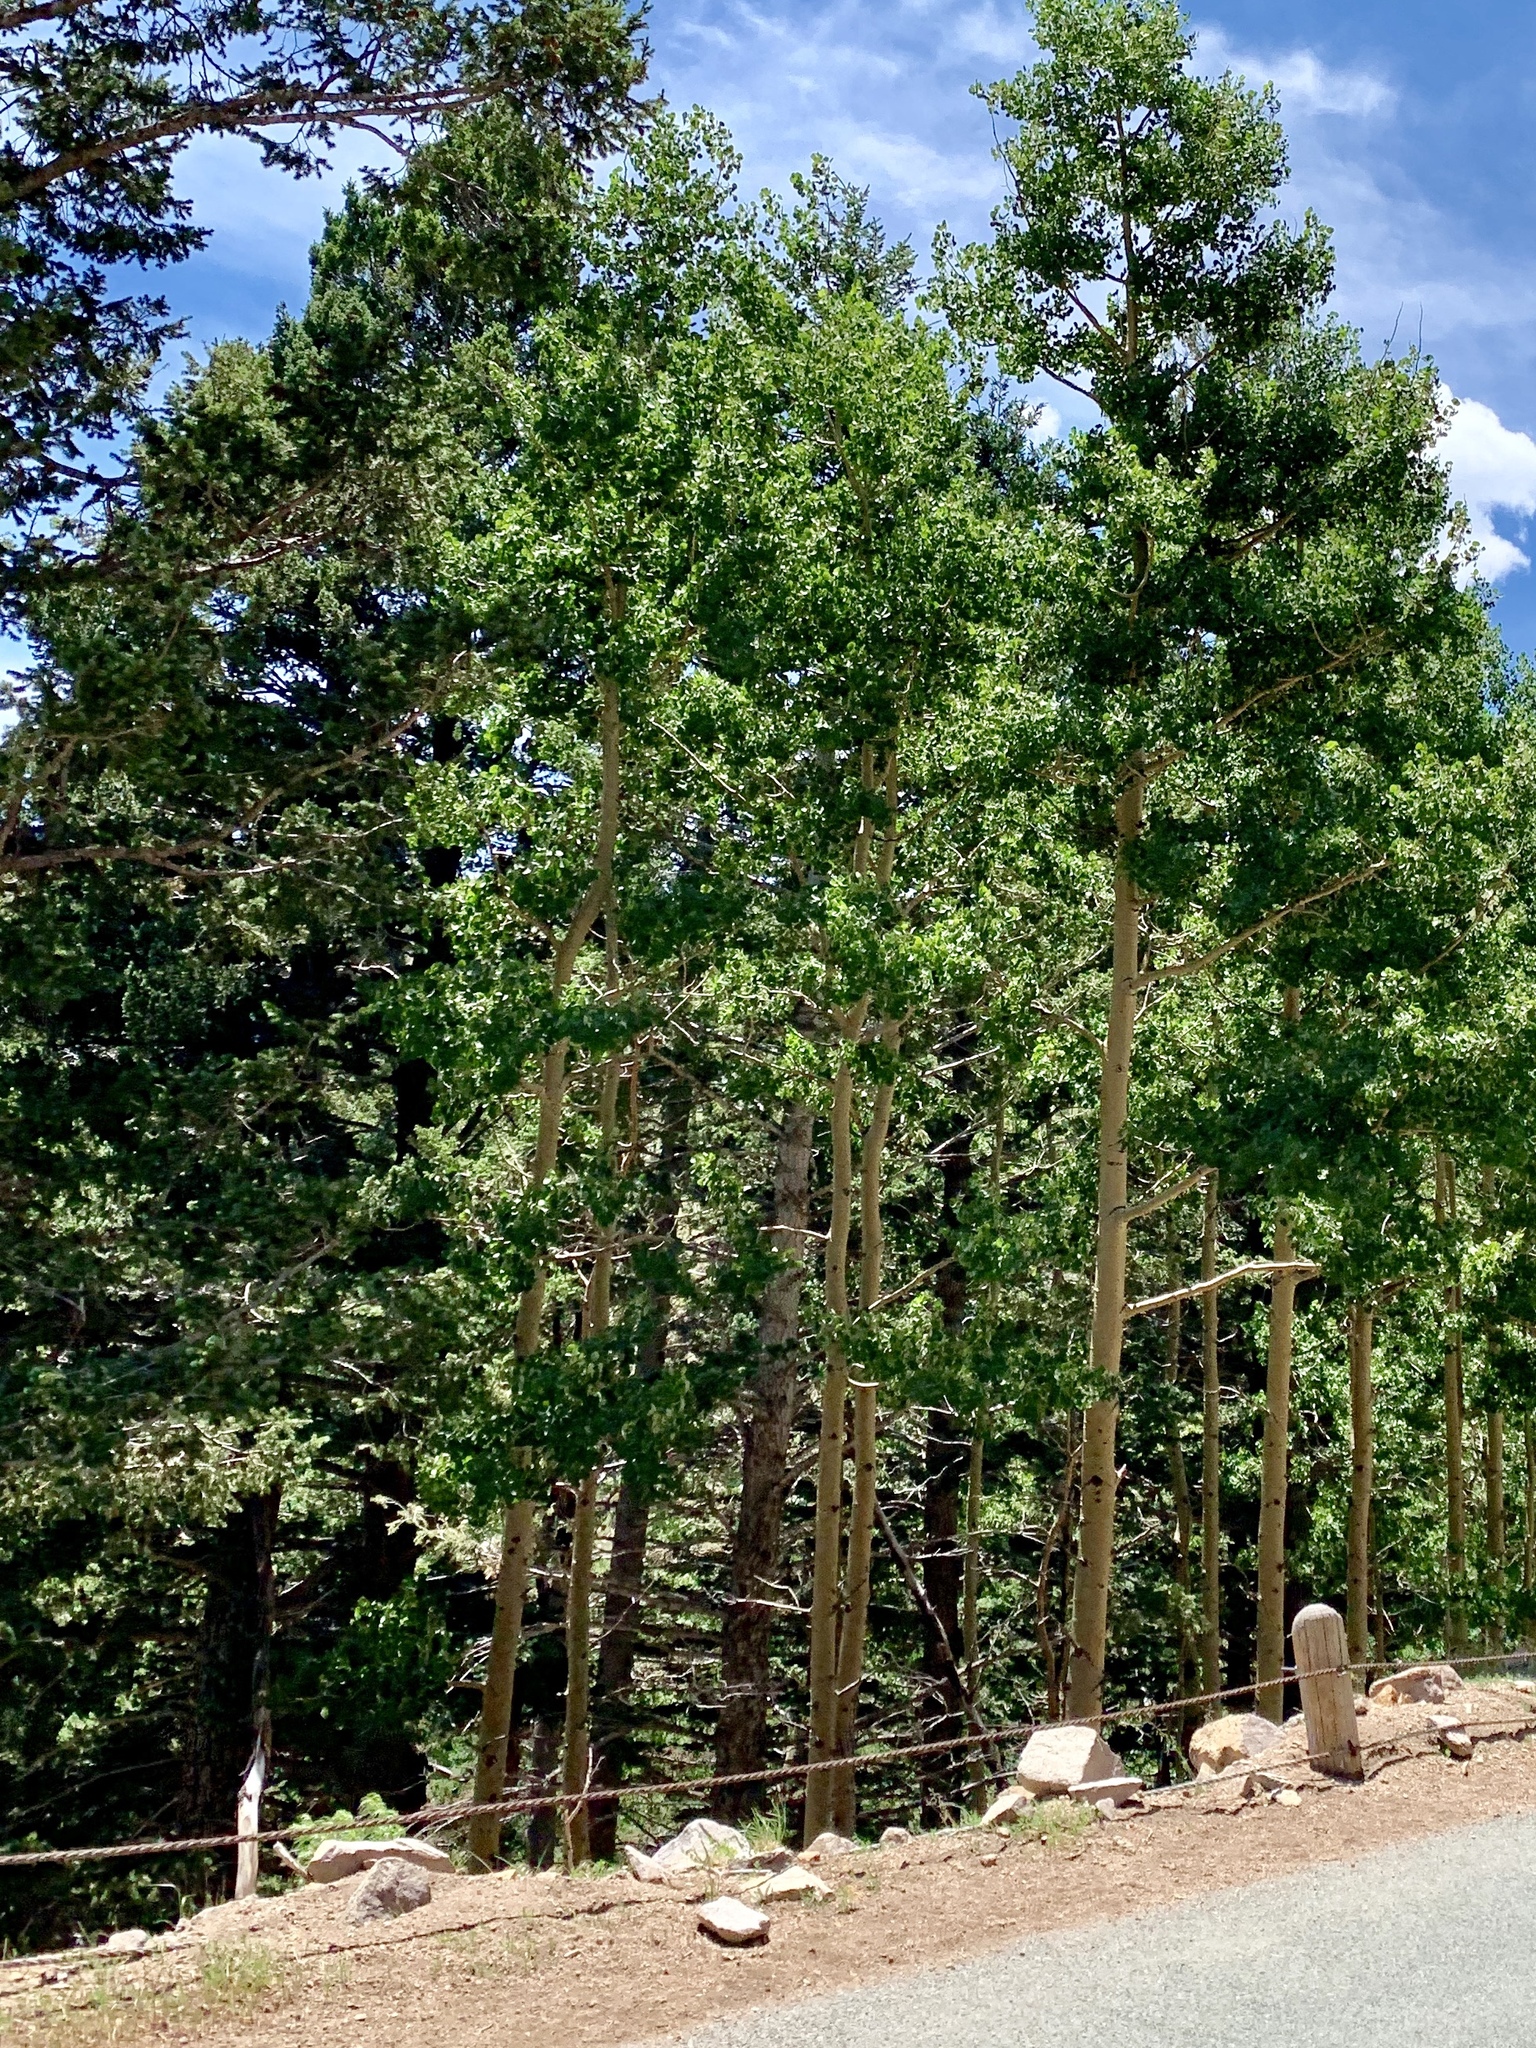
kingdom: Plantae
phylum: Tracheophyta
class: Magnoliopsida
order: Malpighiales
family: Salicaceae
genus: Populus
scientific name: Populus tremuloides
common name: Quaking aspen
